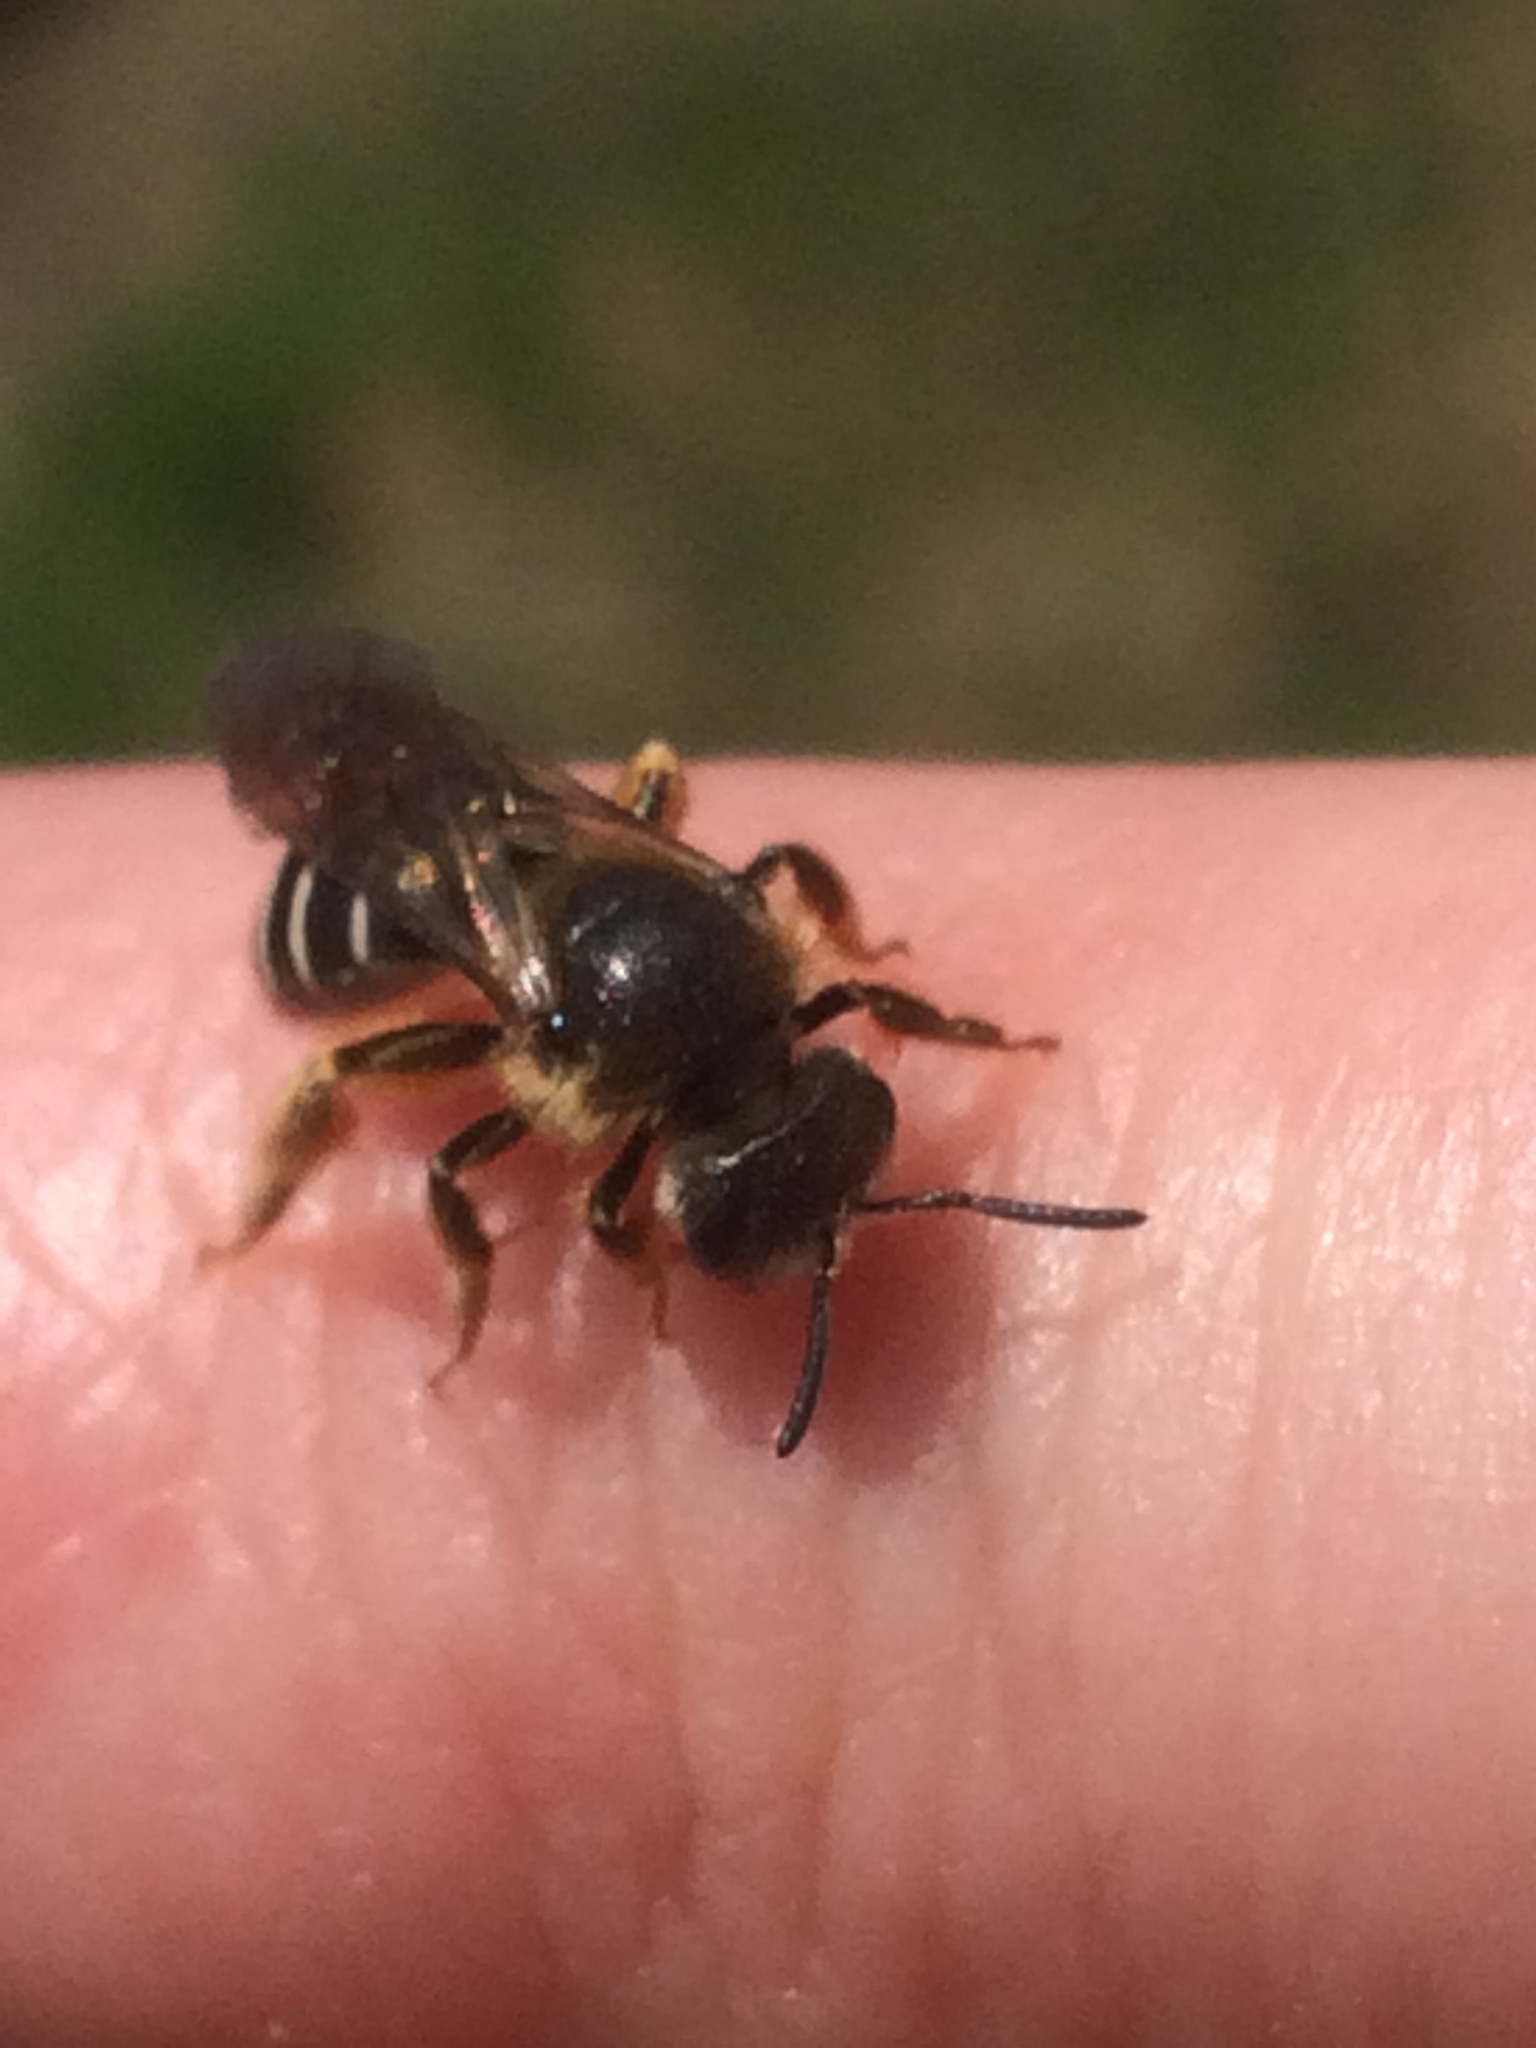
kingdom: Animalia
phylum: Arthropoda
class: Insecta
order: Hymenoptera
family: Halictidae
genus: Halictus
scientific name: Halictus rubicundus
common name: Orange-legged furrow bee
